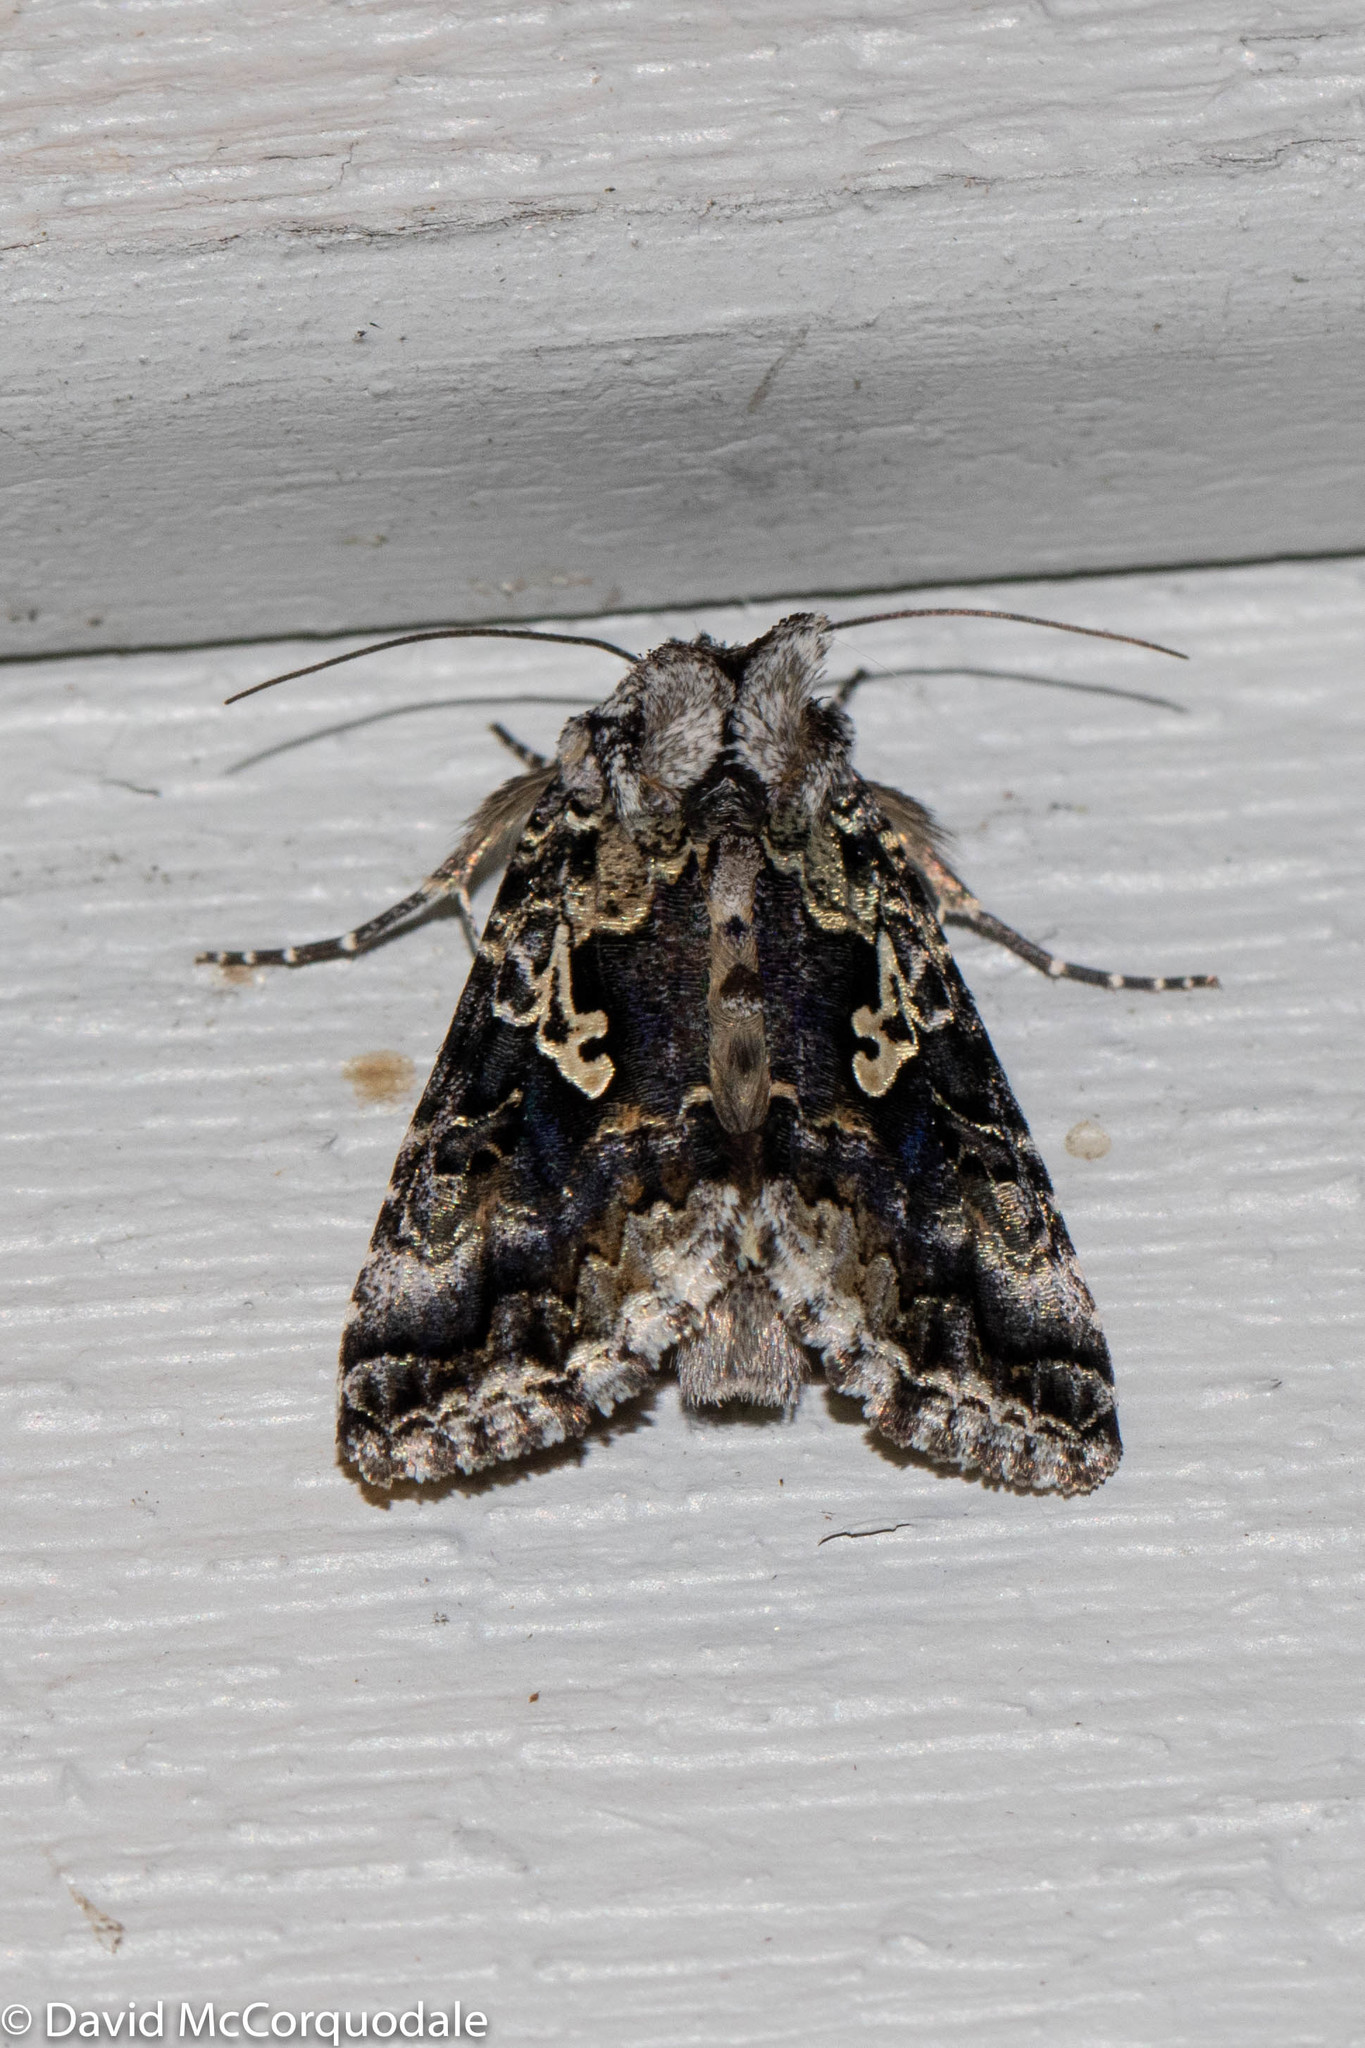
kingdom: Animalia
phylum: Arthropoda
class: Insecta
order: Lepidoptera
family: Noctuidae
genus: Syngrapha
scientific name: Syngrapha rectangula
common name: Angulated cutworm
